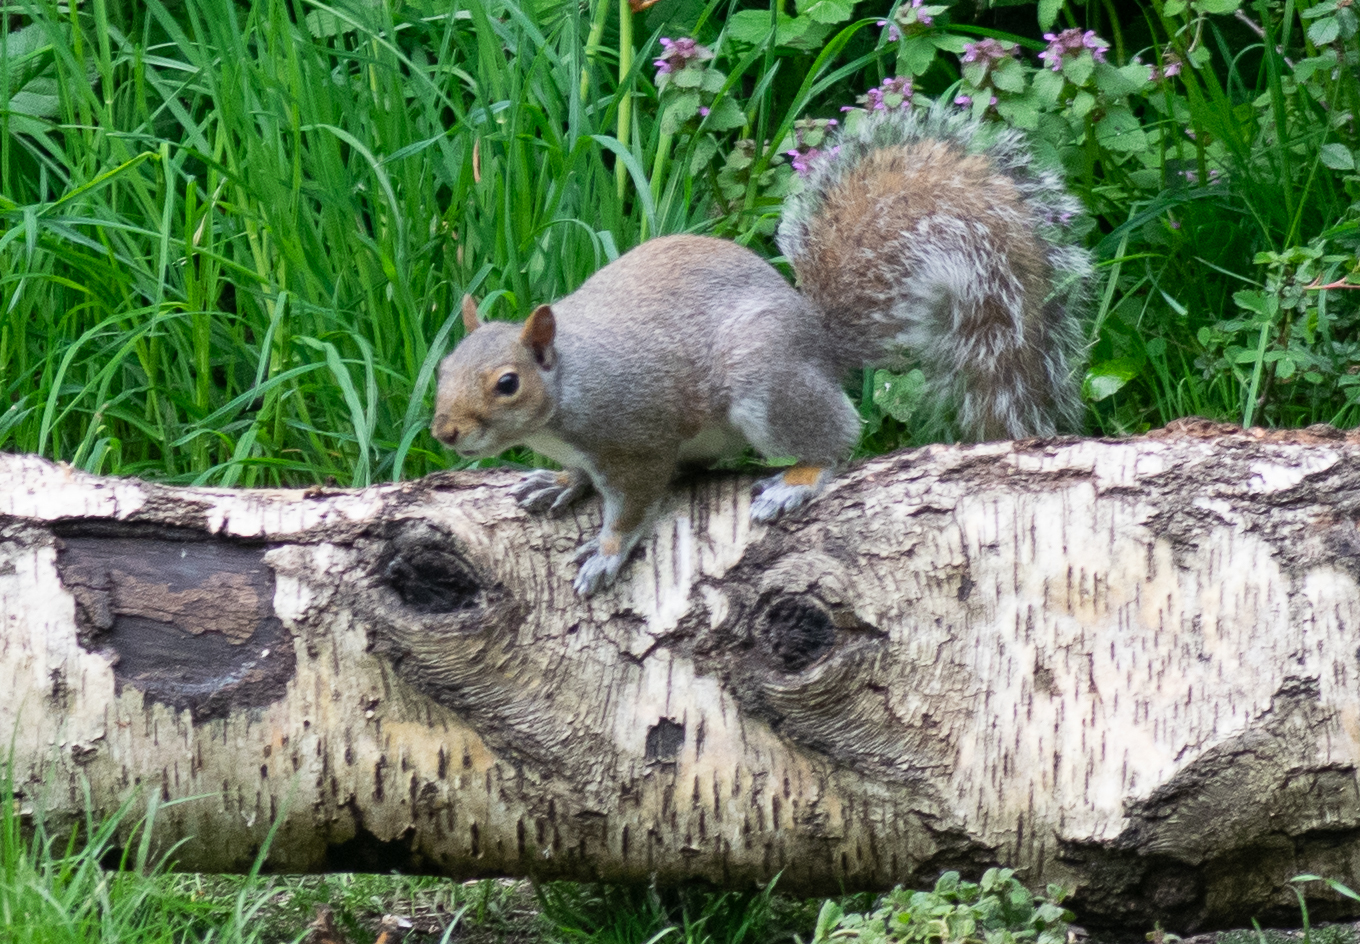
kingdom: Animalia
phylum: Chordata
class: Mammalia
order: Rodentia
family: Sciuridae
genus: Sciurus
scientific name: Sciurus carolinensis
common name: Eastern gray squirrel
